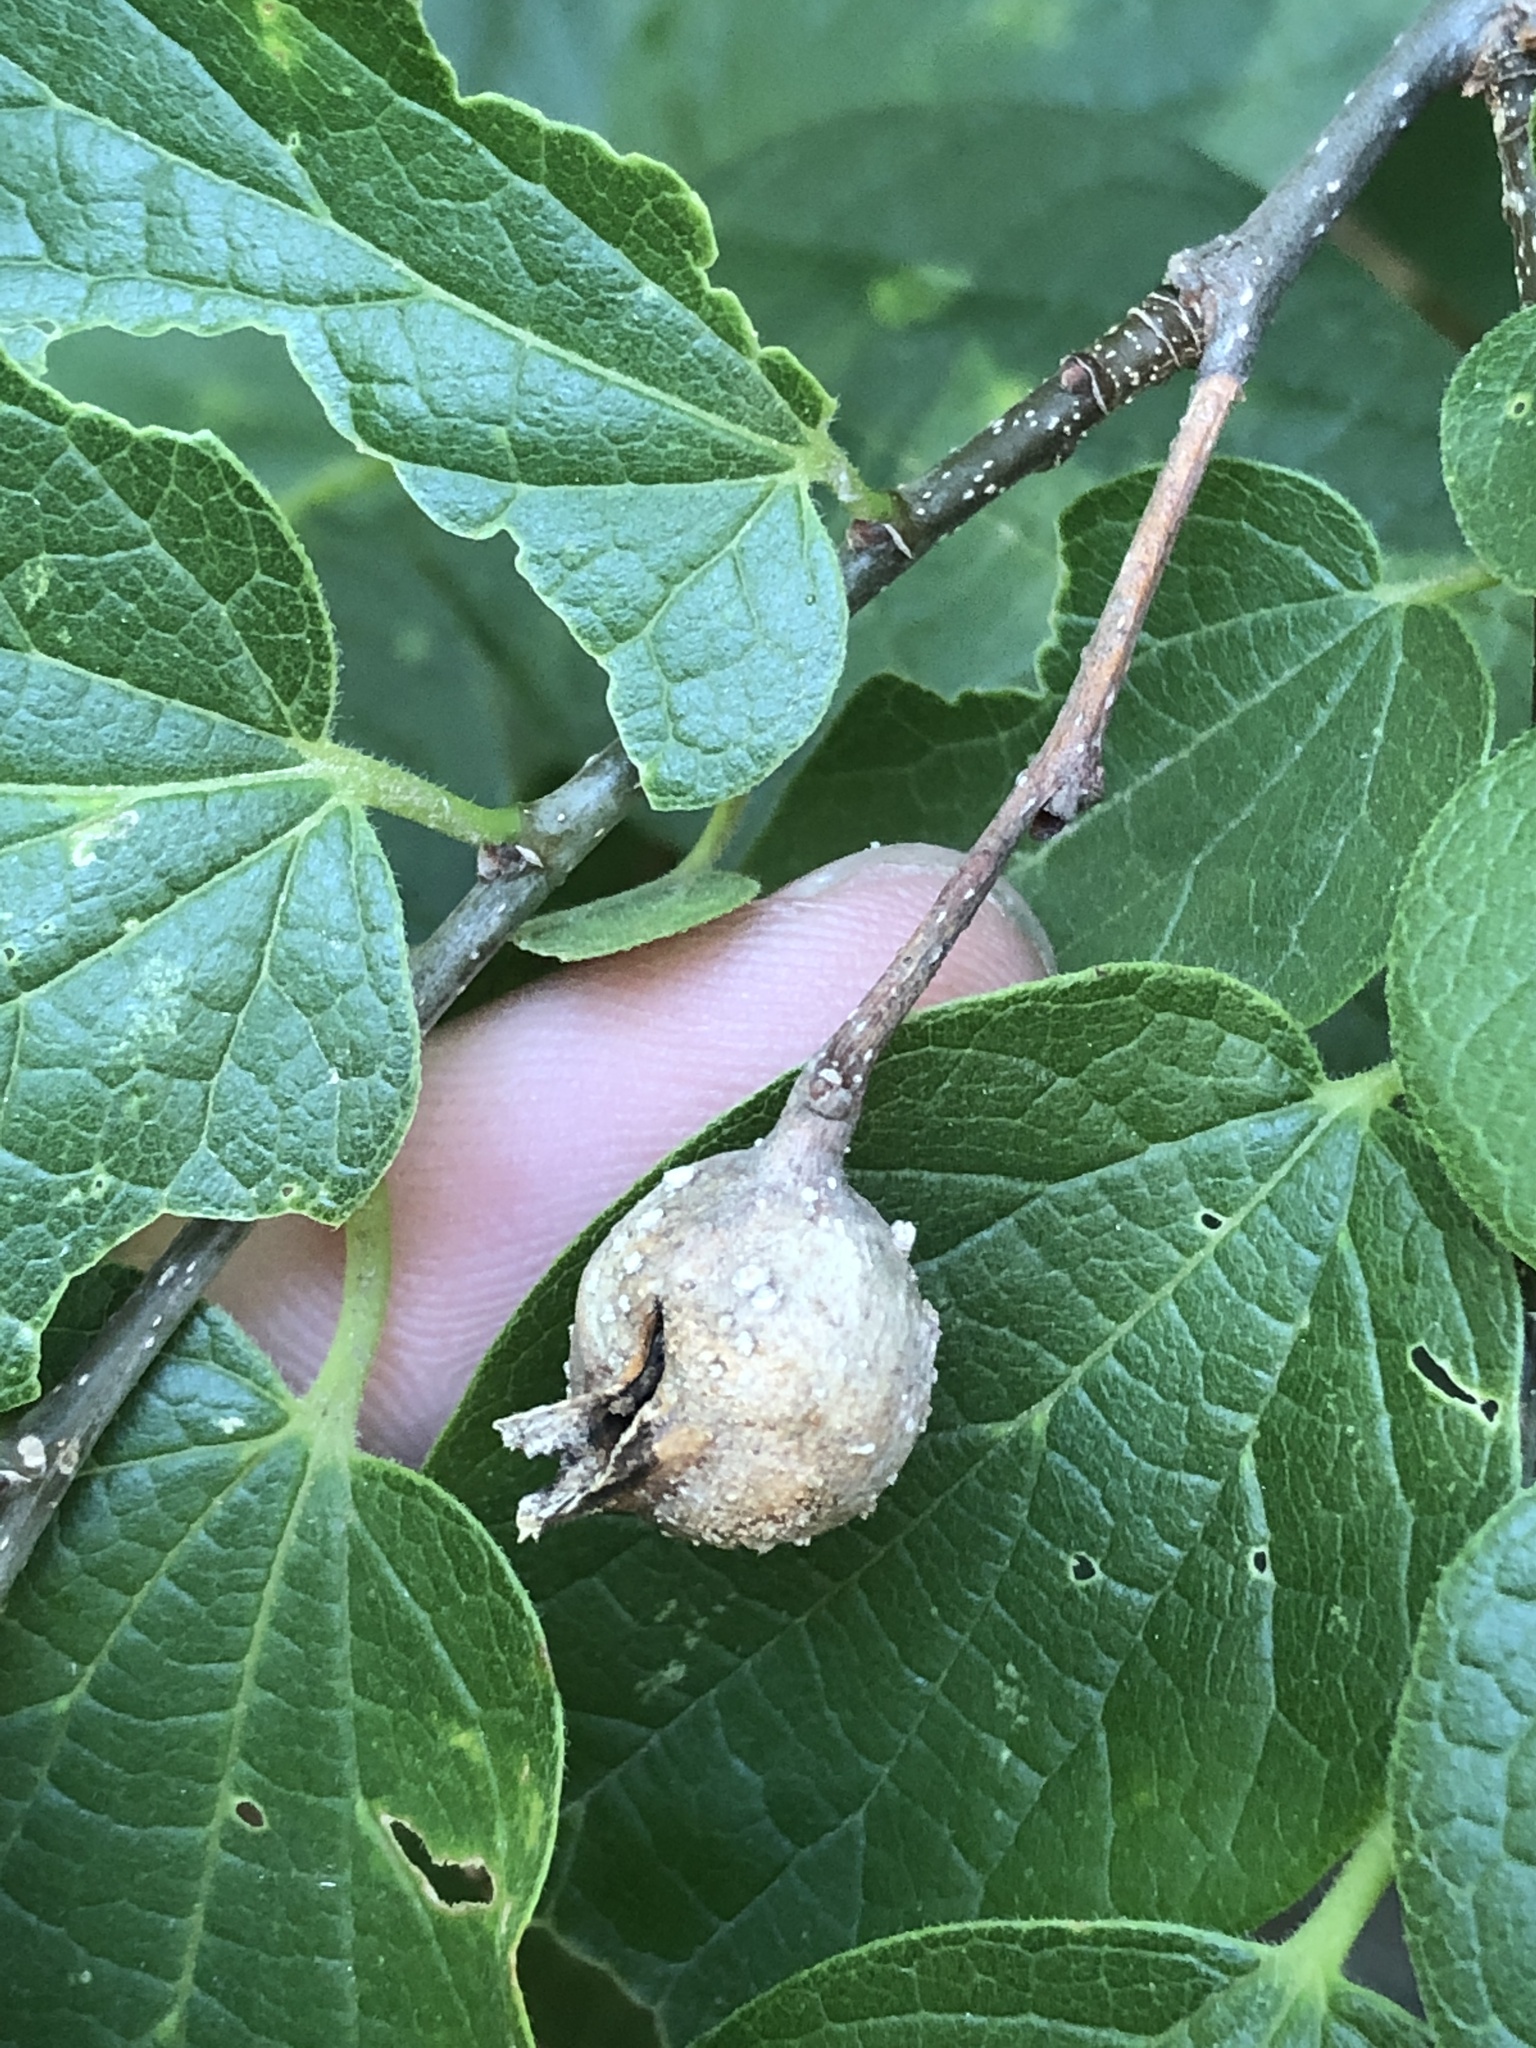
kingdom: Animalia
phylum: Arthropoda
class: Insecta
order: Hemiptera
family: Aphalaridae
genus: Pachypsylla
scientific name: Pachypsylla venusta
